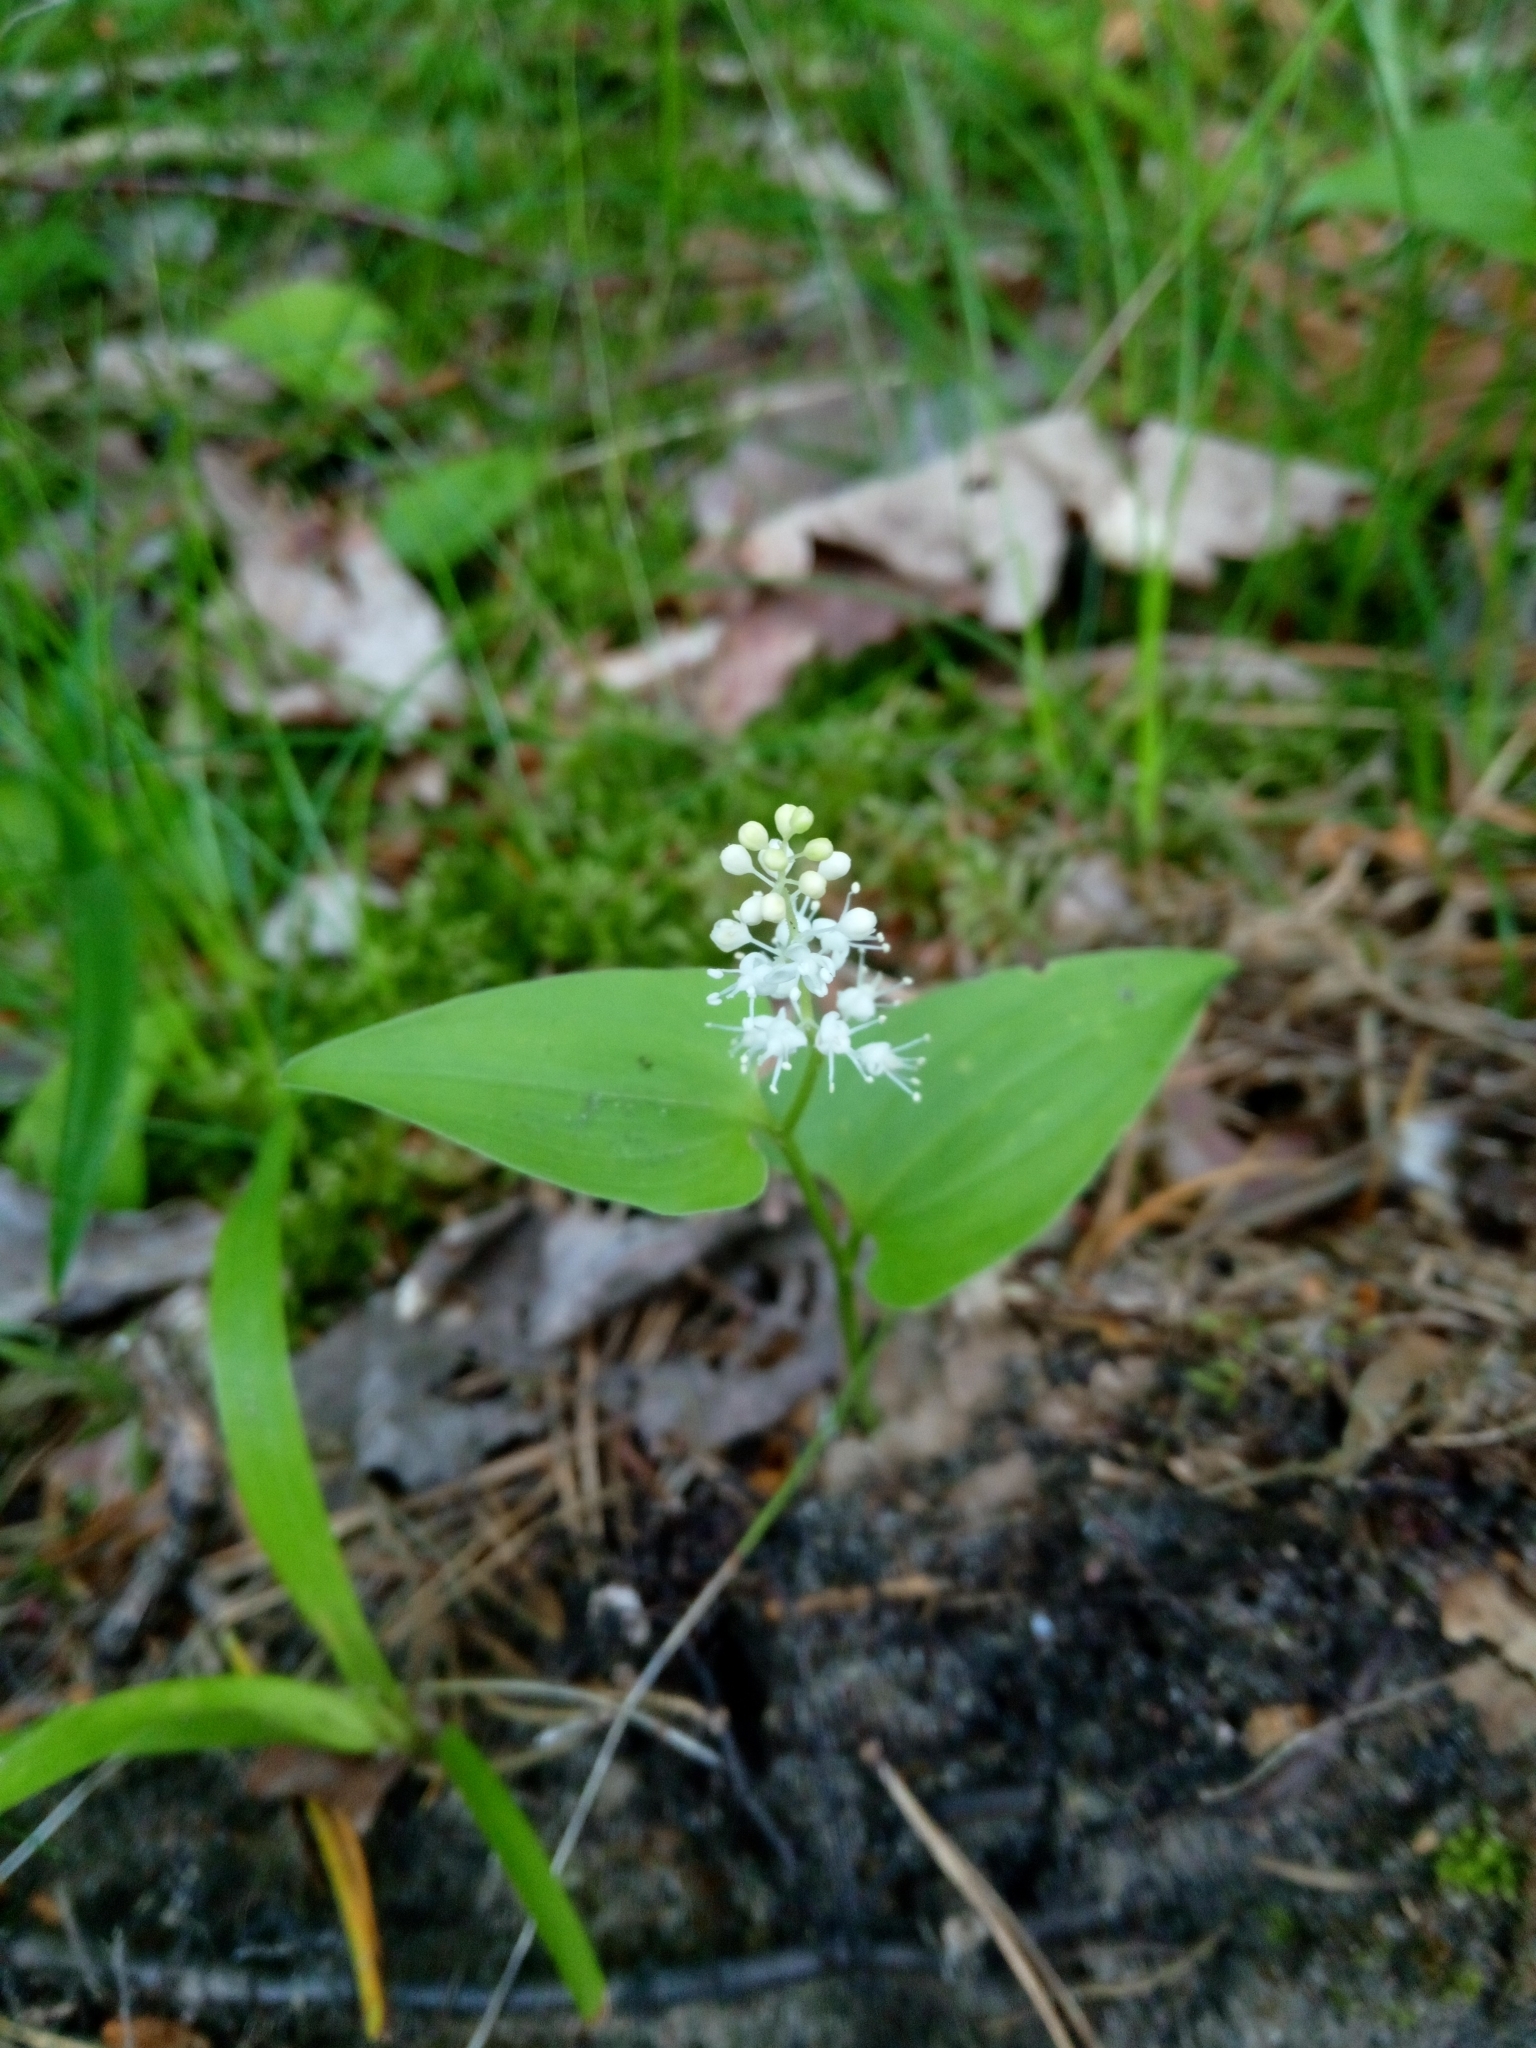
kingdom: Plantae
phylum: Tracheophyta
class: Liliopsida
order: Asparagales
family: Asparagaceae
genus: Maianthemum
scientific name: Maianthemum bifolium
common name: May lily
